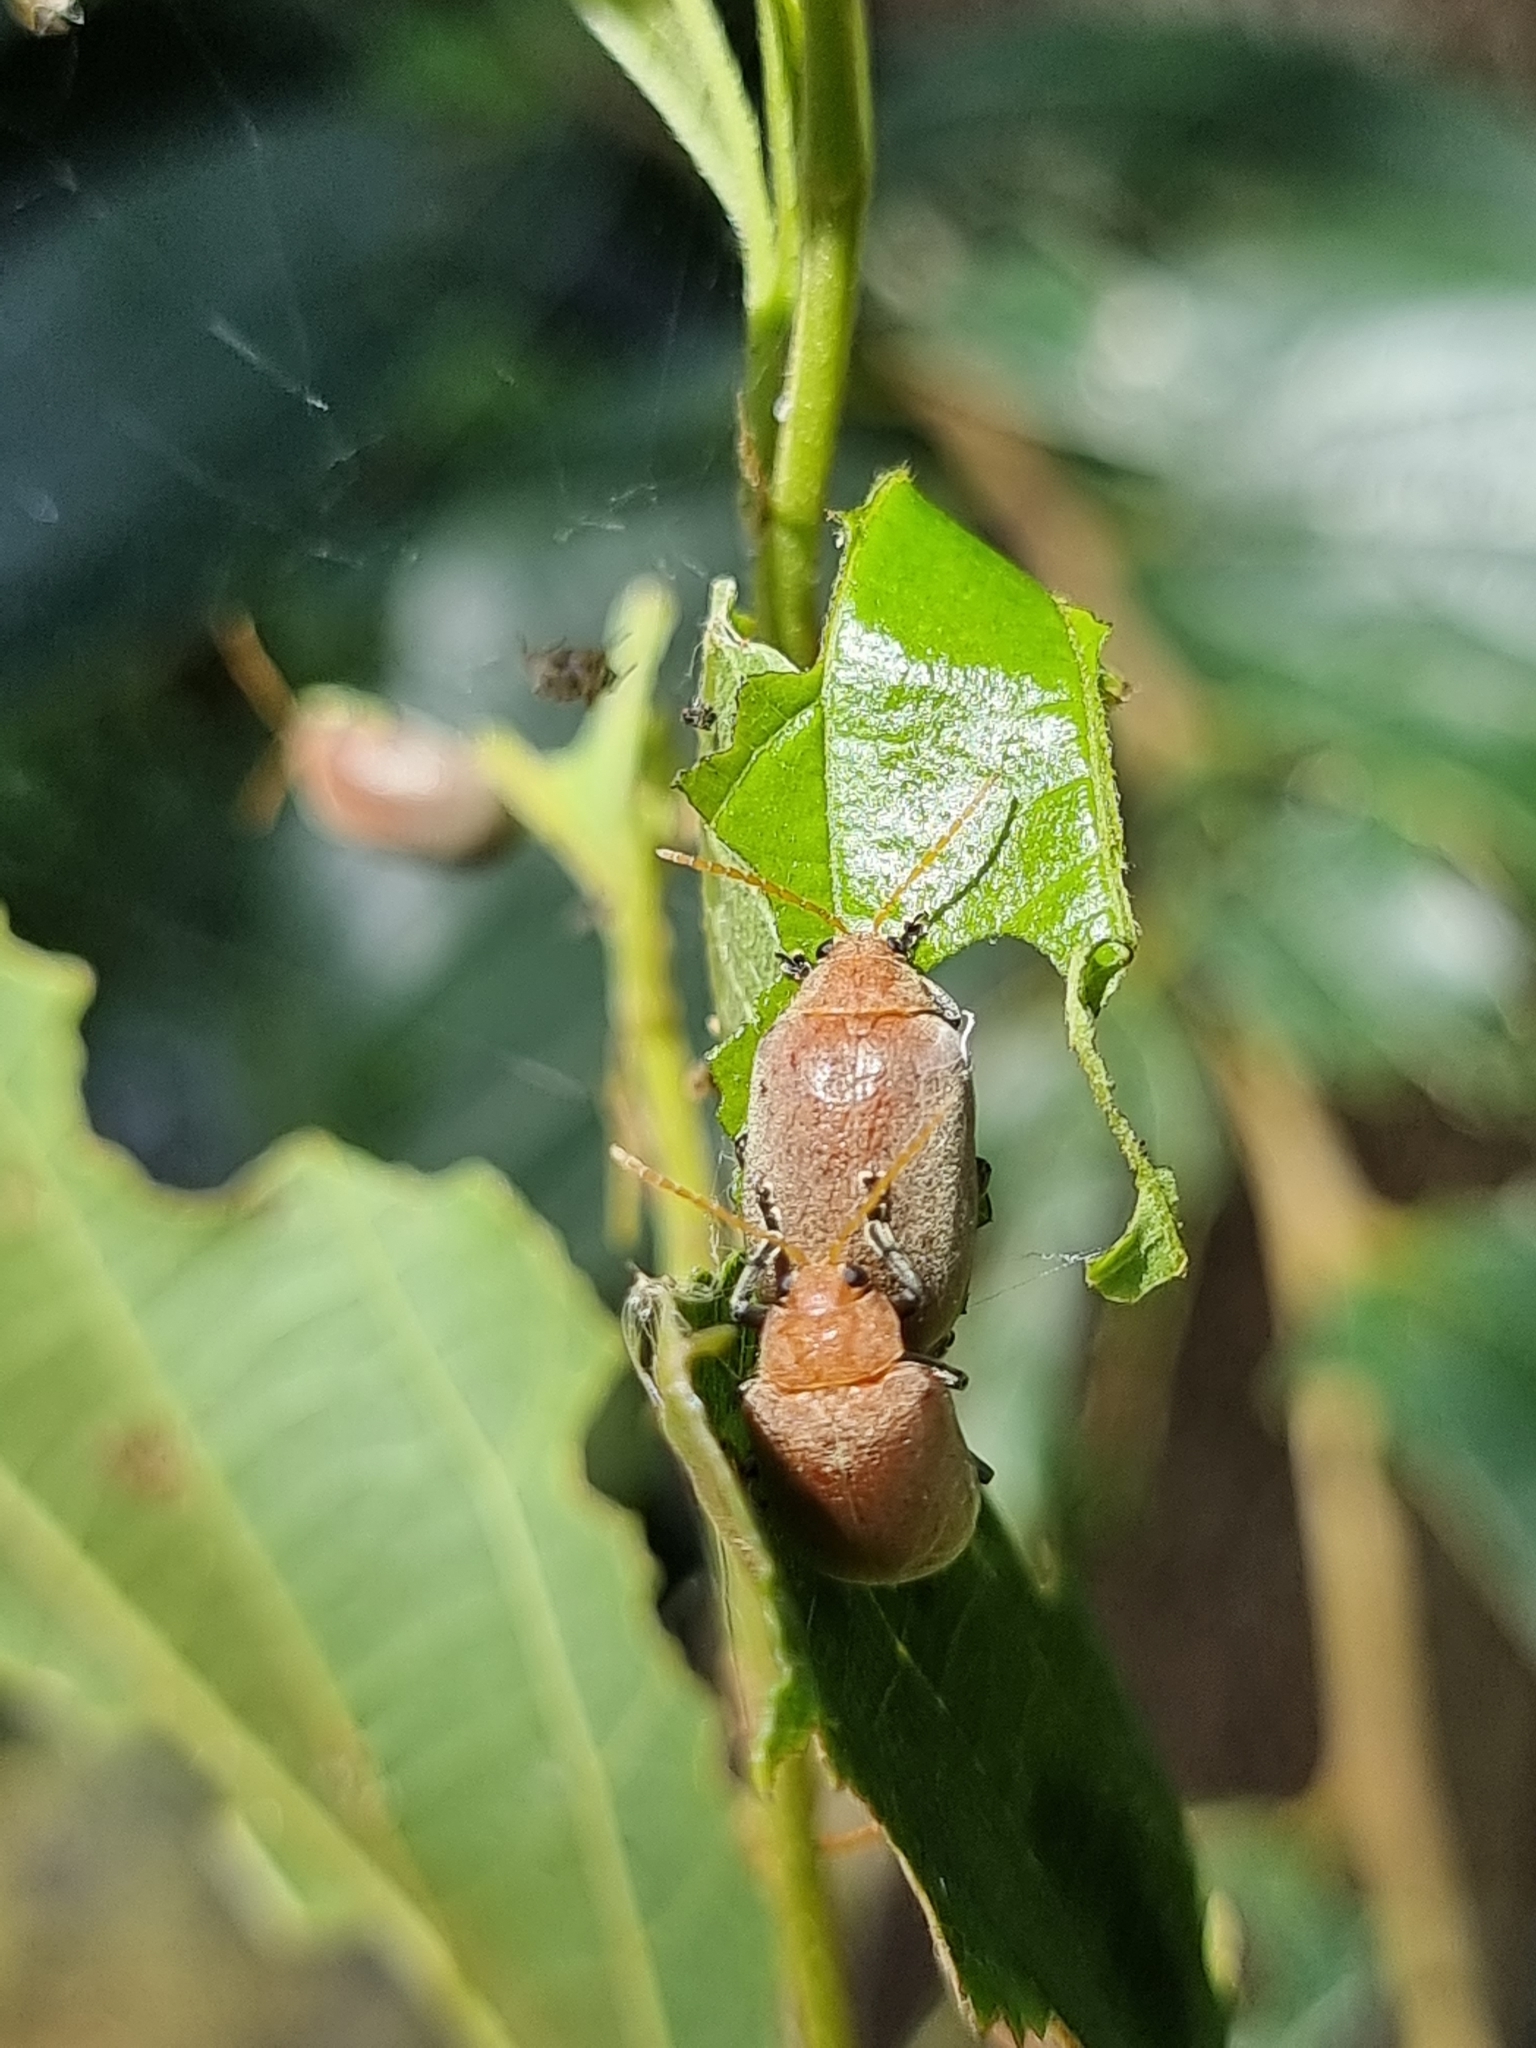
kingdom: Animalia
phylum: Arthropoda
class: Insecta
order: Coleoptera
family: Chrysomelidae
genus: Menippus
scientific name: Menippus
